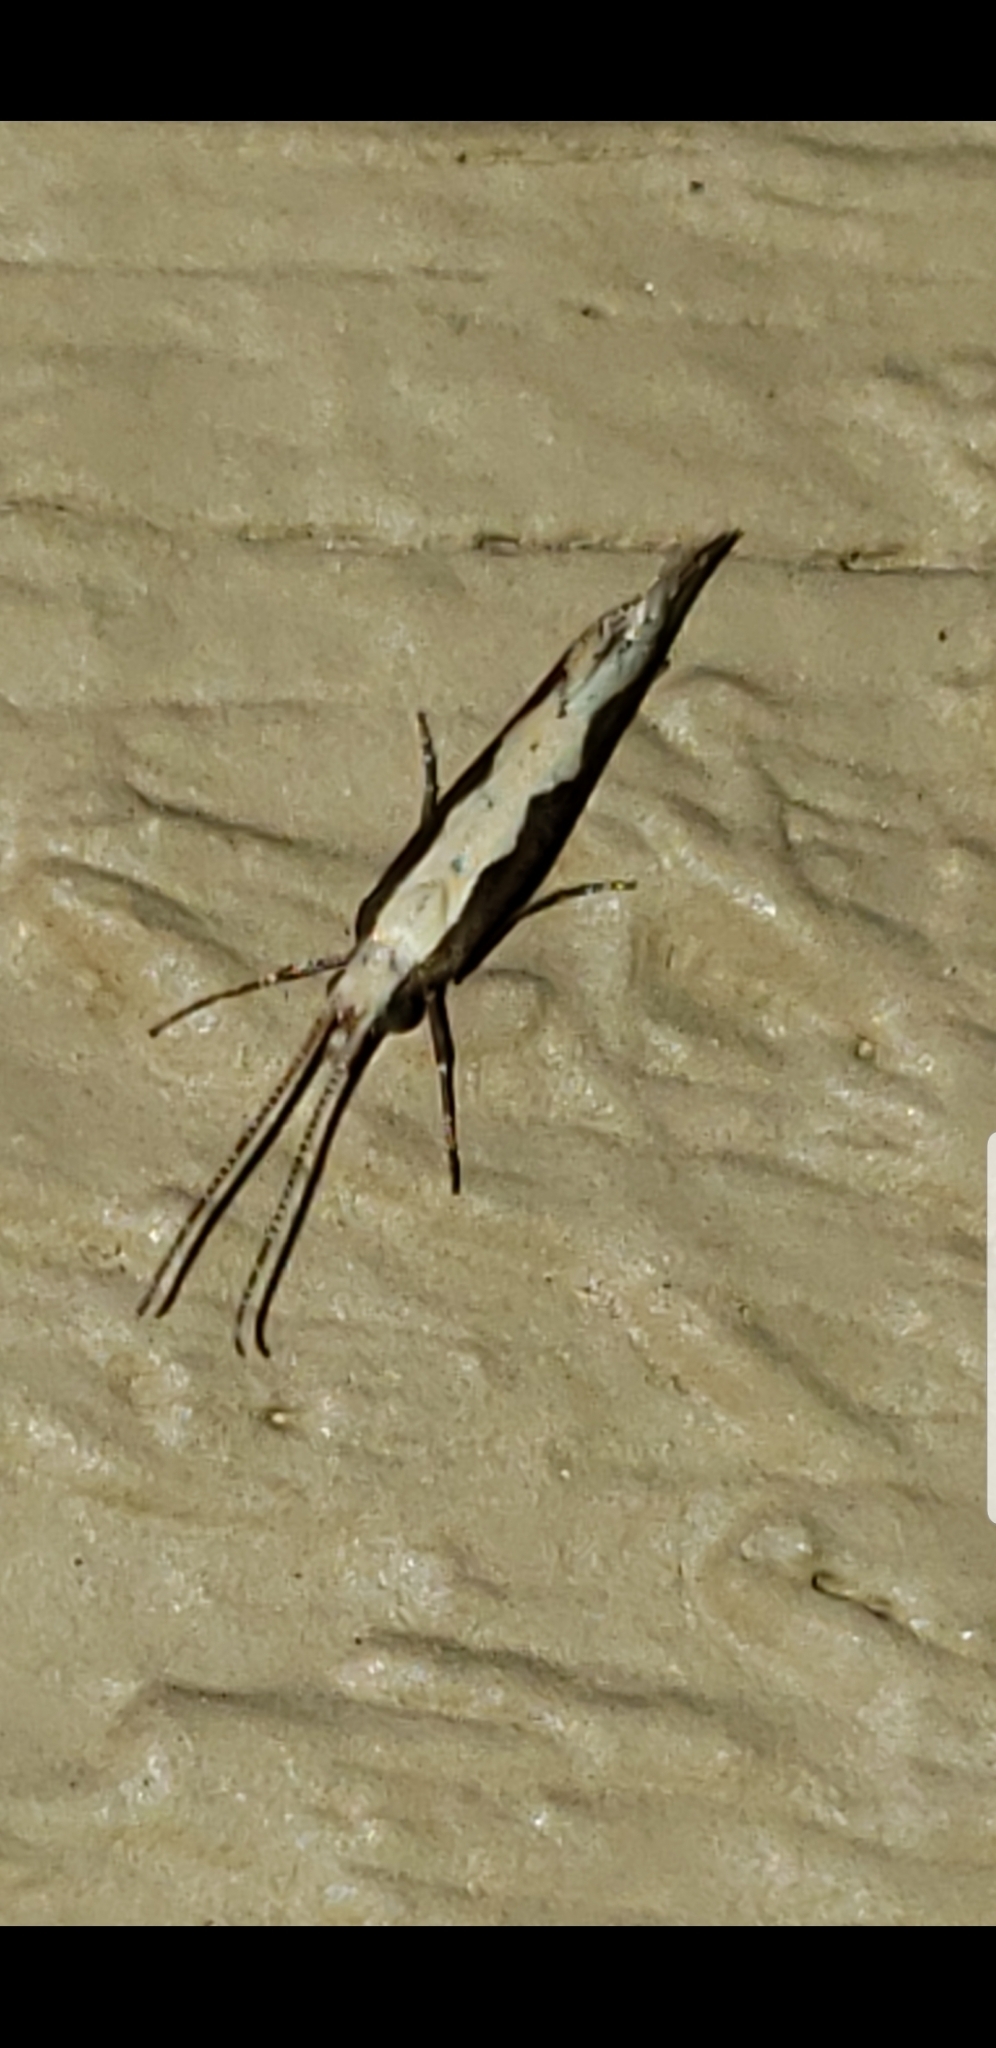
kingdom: Animalia
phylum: Arthropoda
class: Insecta
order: Lepidoptera
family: Plutellidae
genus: Plutella
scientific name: Plutella xylostella
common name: Diamond-back moth
